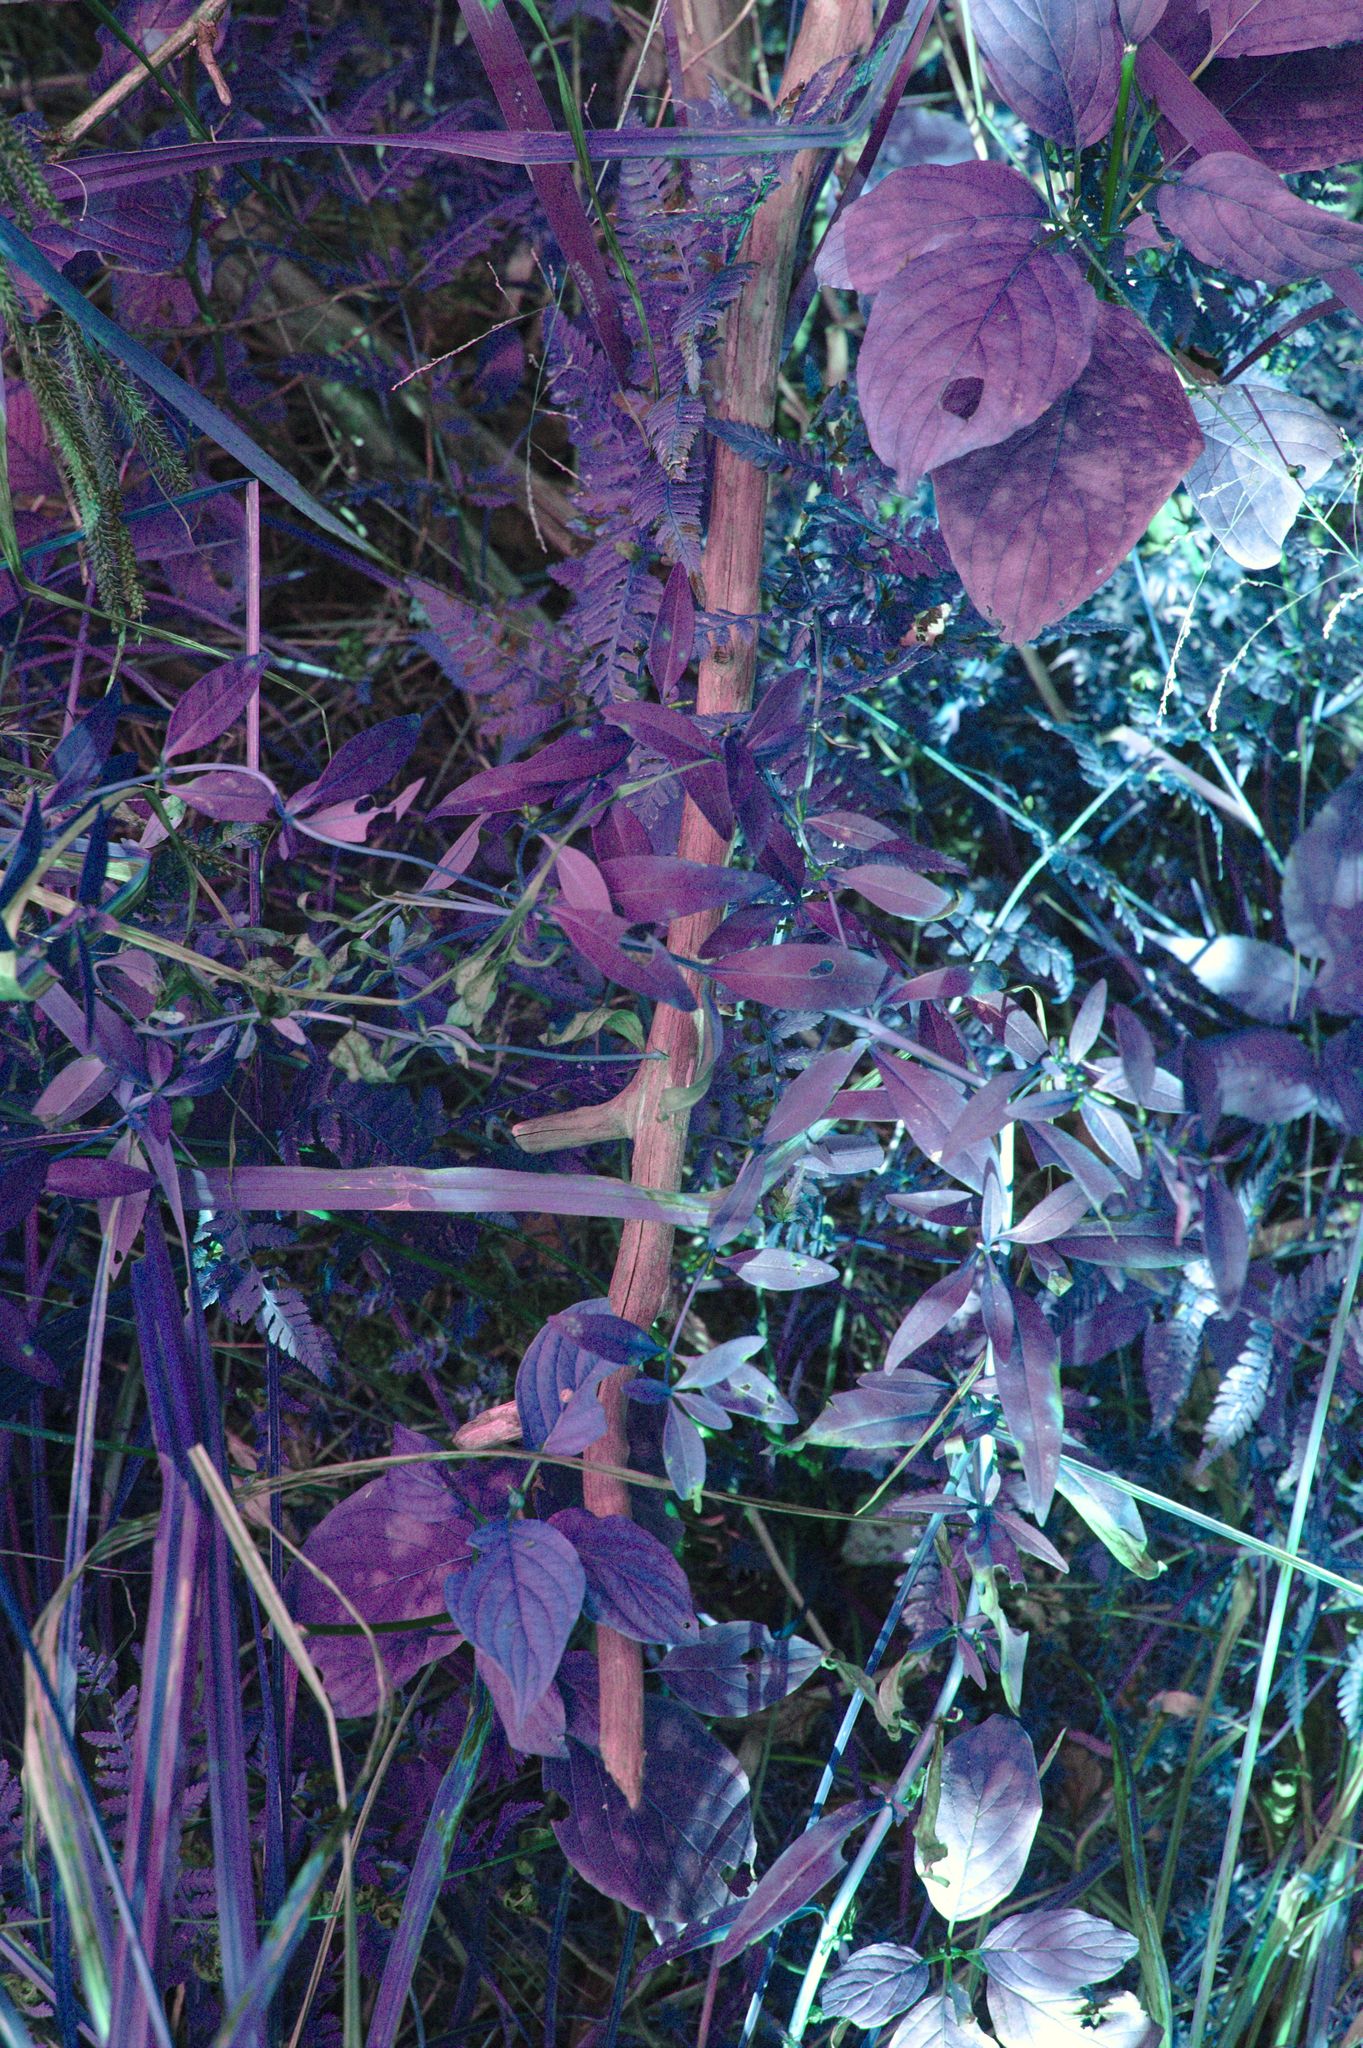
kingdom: Plantae
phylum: Tracheophyta
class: Magnoliopsida
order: Ericales
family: Primulaceae
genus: Lysimachia
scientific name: Lysimachia terrestris
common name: Lake loosestrife
